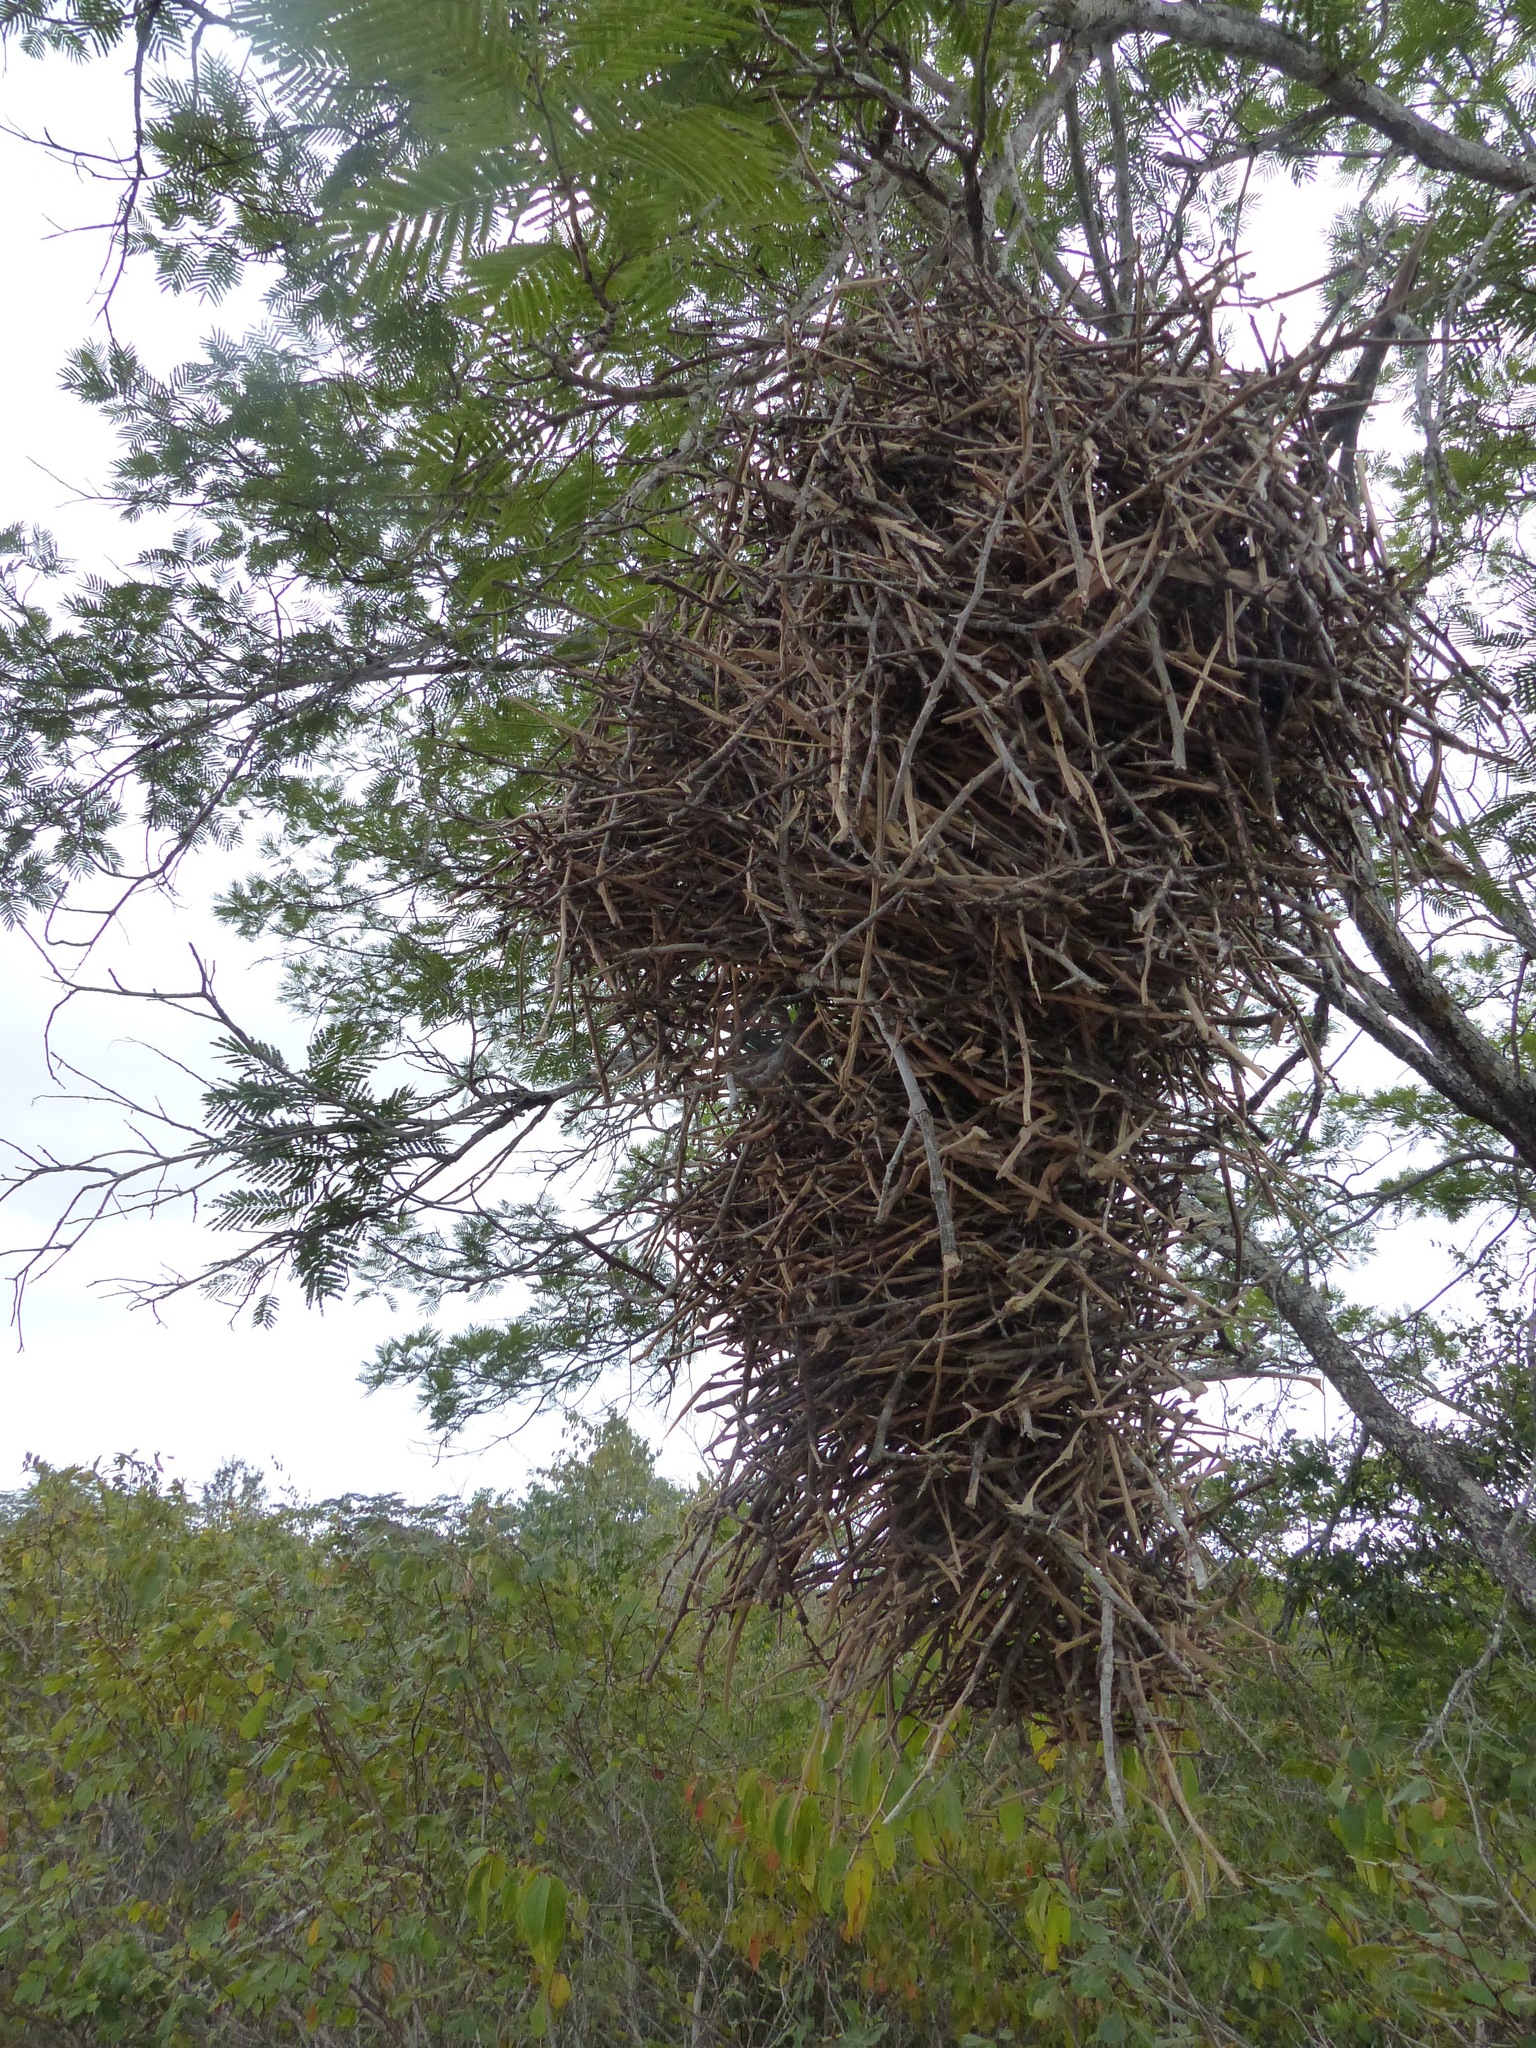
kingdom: Animalia
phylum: Chordata
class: Aves
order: Passeriformes
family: Furnariidae
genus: Phacellodomus
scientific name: Phacellodomus rufifrons
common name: Rufous-fronted thornbird
